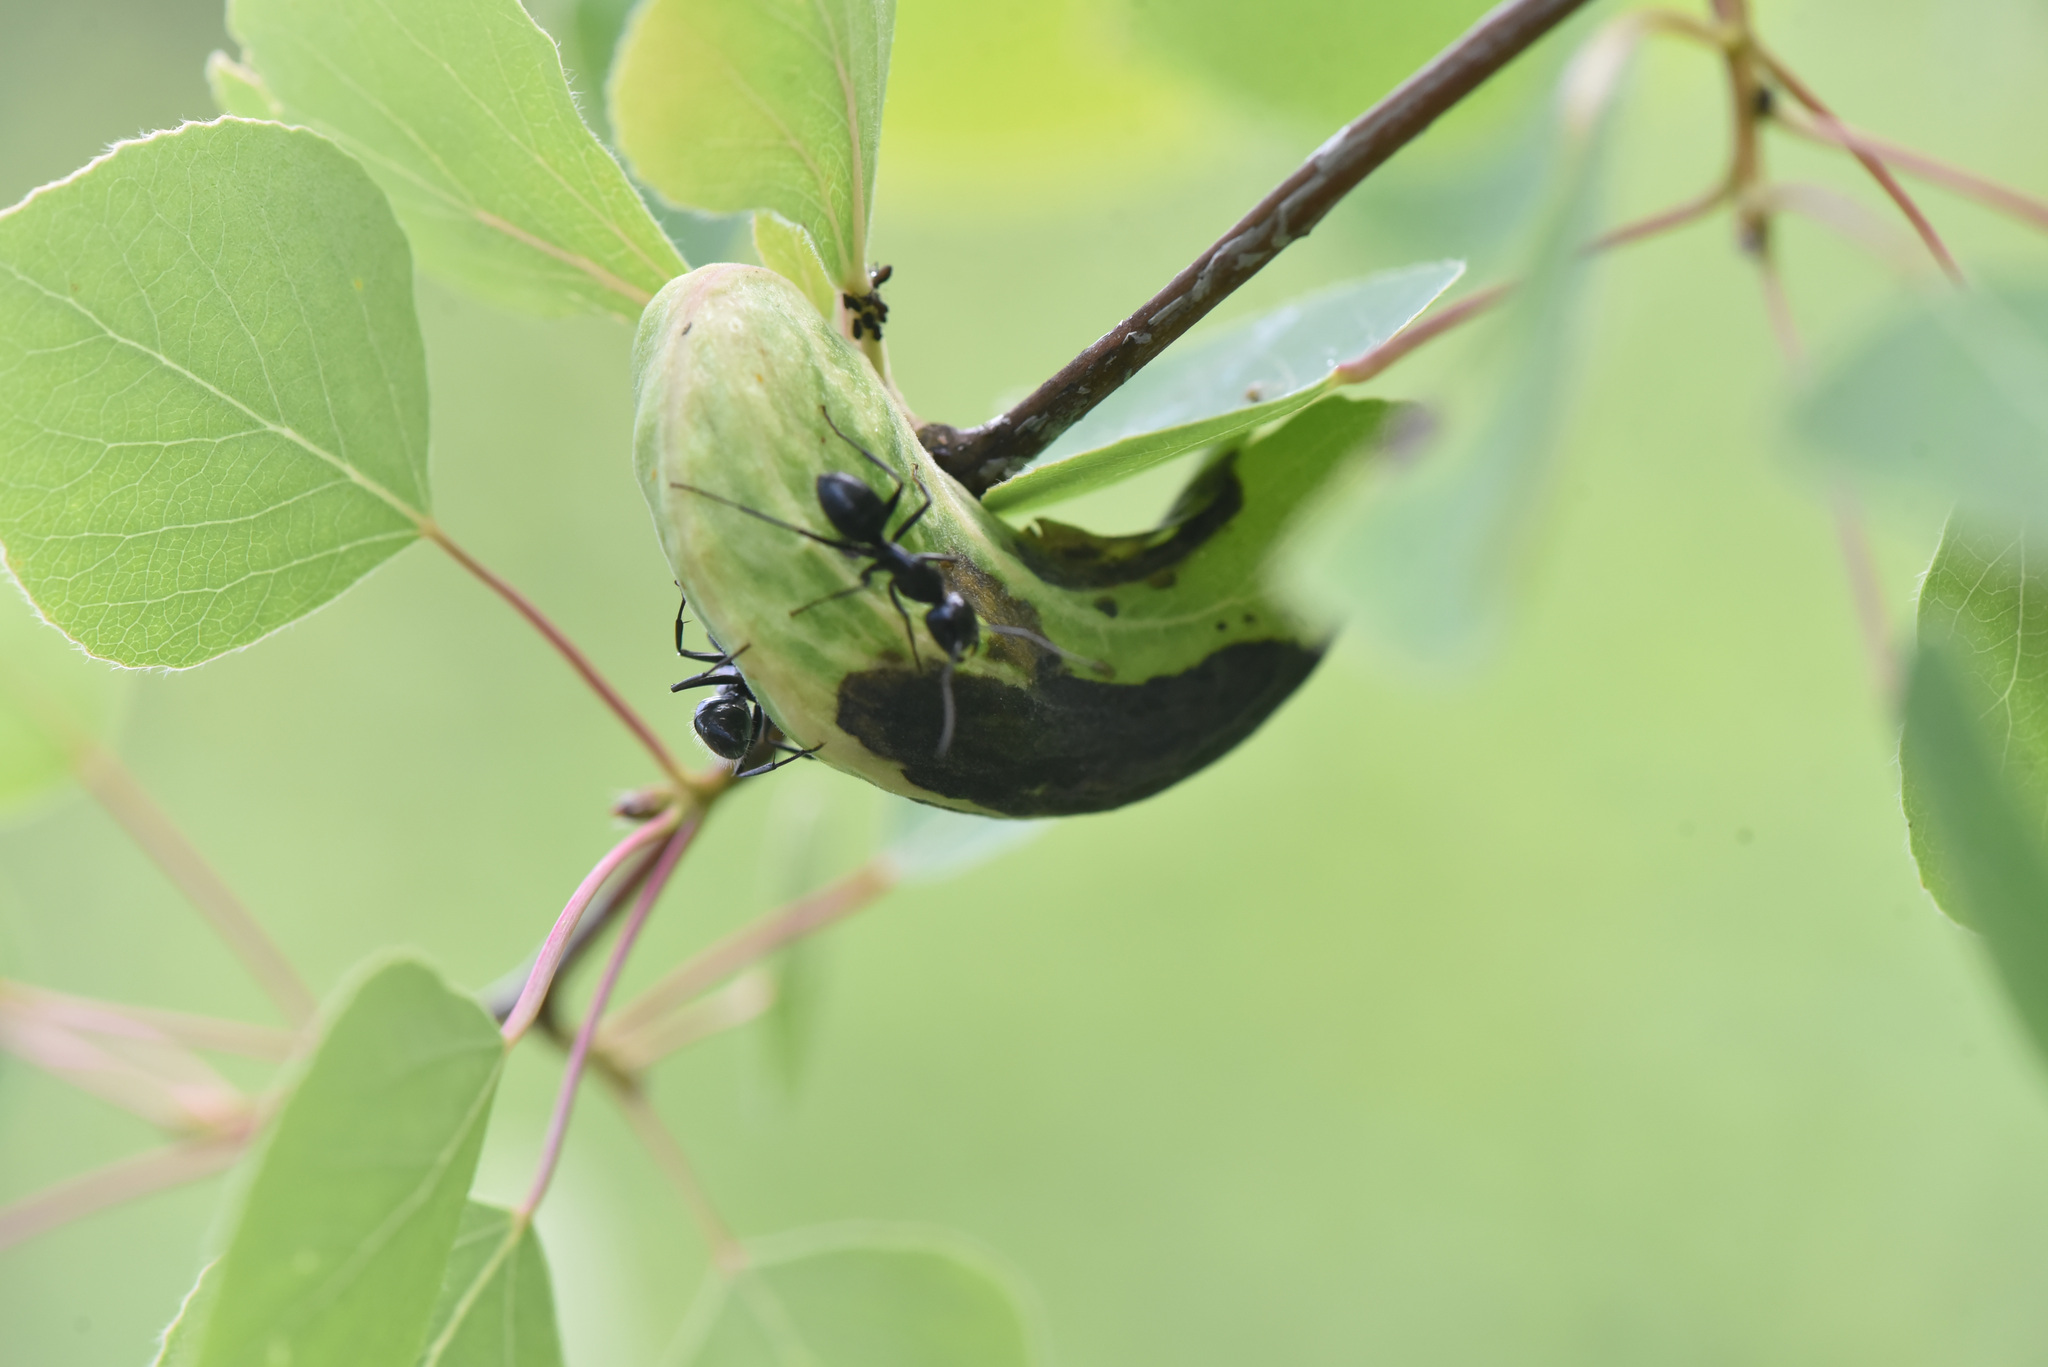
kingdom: Animalia
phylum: Arthropoda
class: Insecta
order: Hemiptera
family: Aphididae
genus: Pachypappa
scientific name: Pachypappa sacculi
